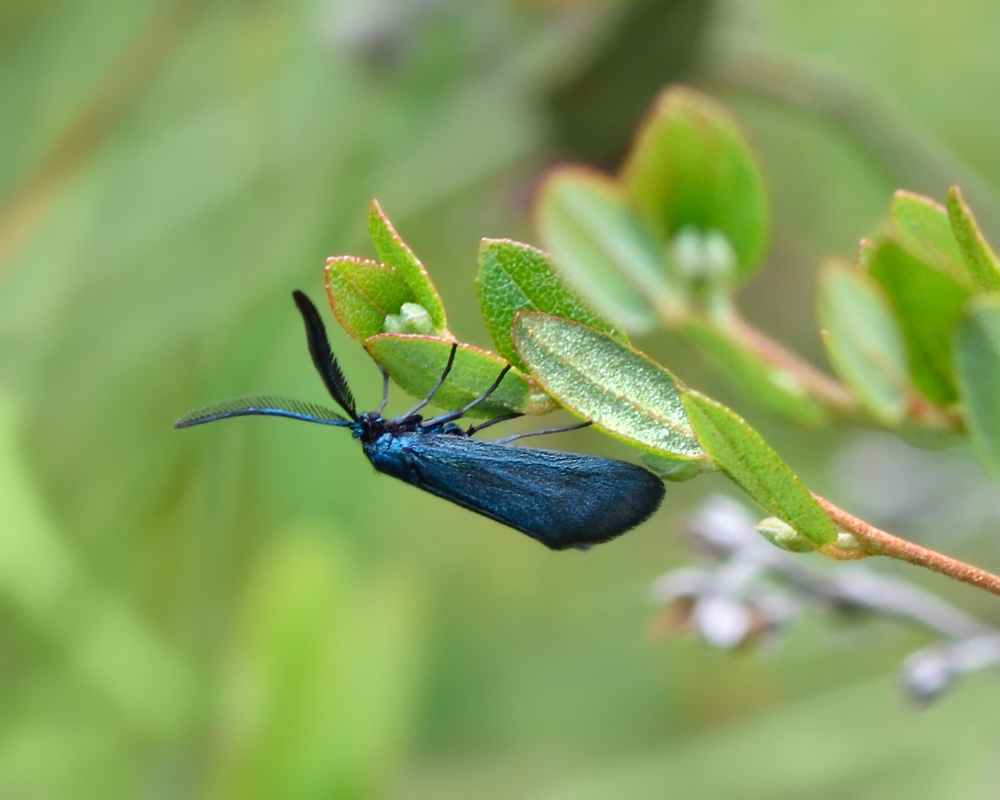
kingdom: Animalia
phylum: Arthropoda
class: Insecta
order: Lepidoptera
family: Zygaenidae
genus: Rhagades
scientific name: Rhagades pruni
